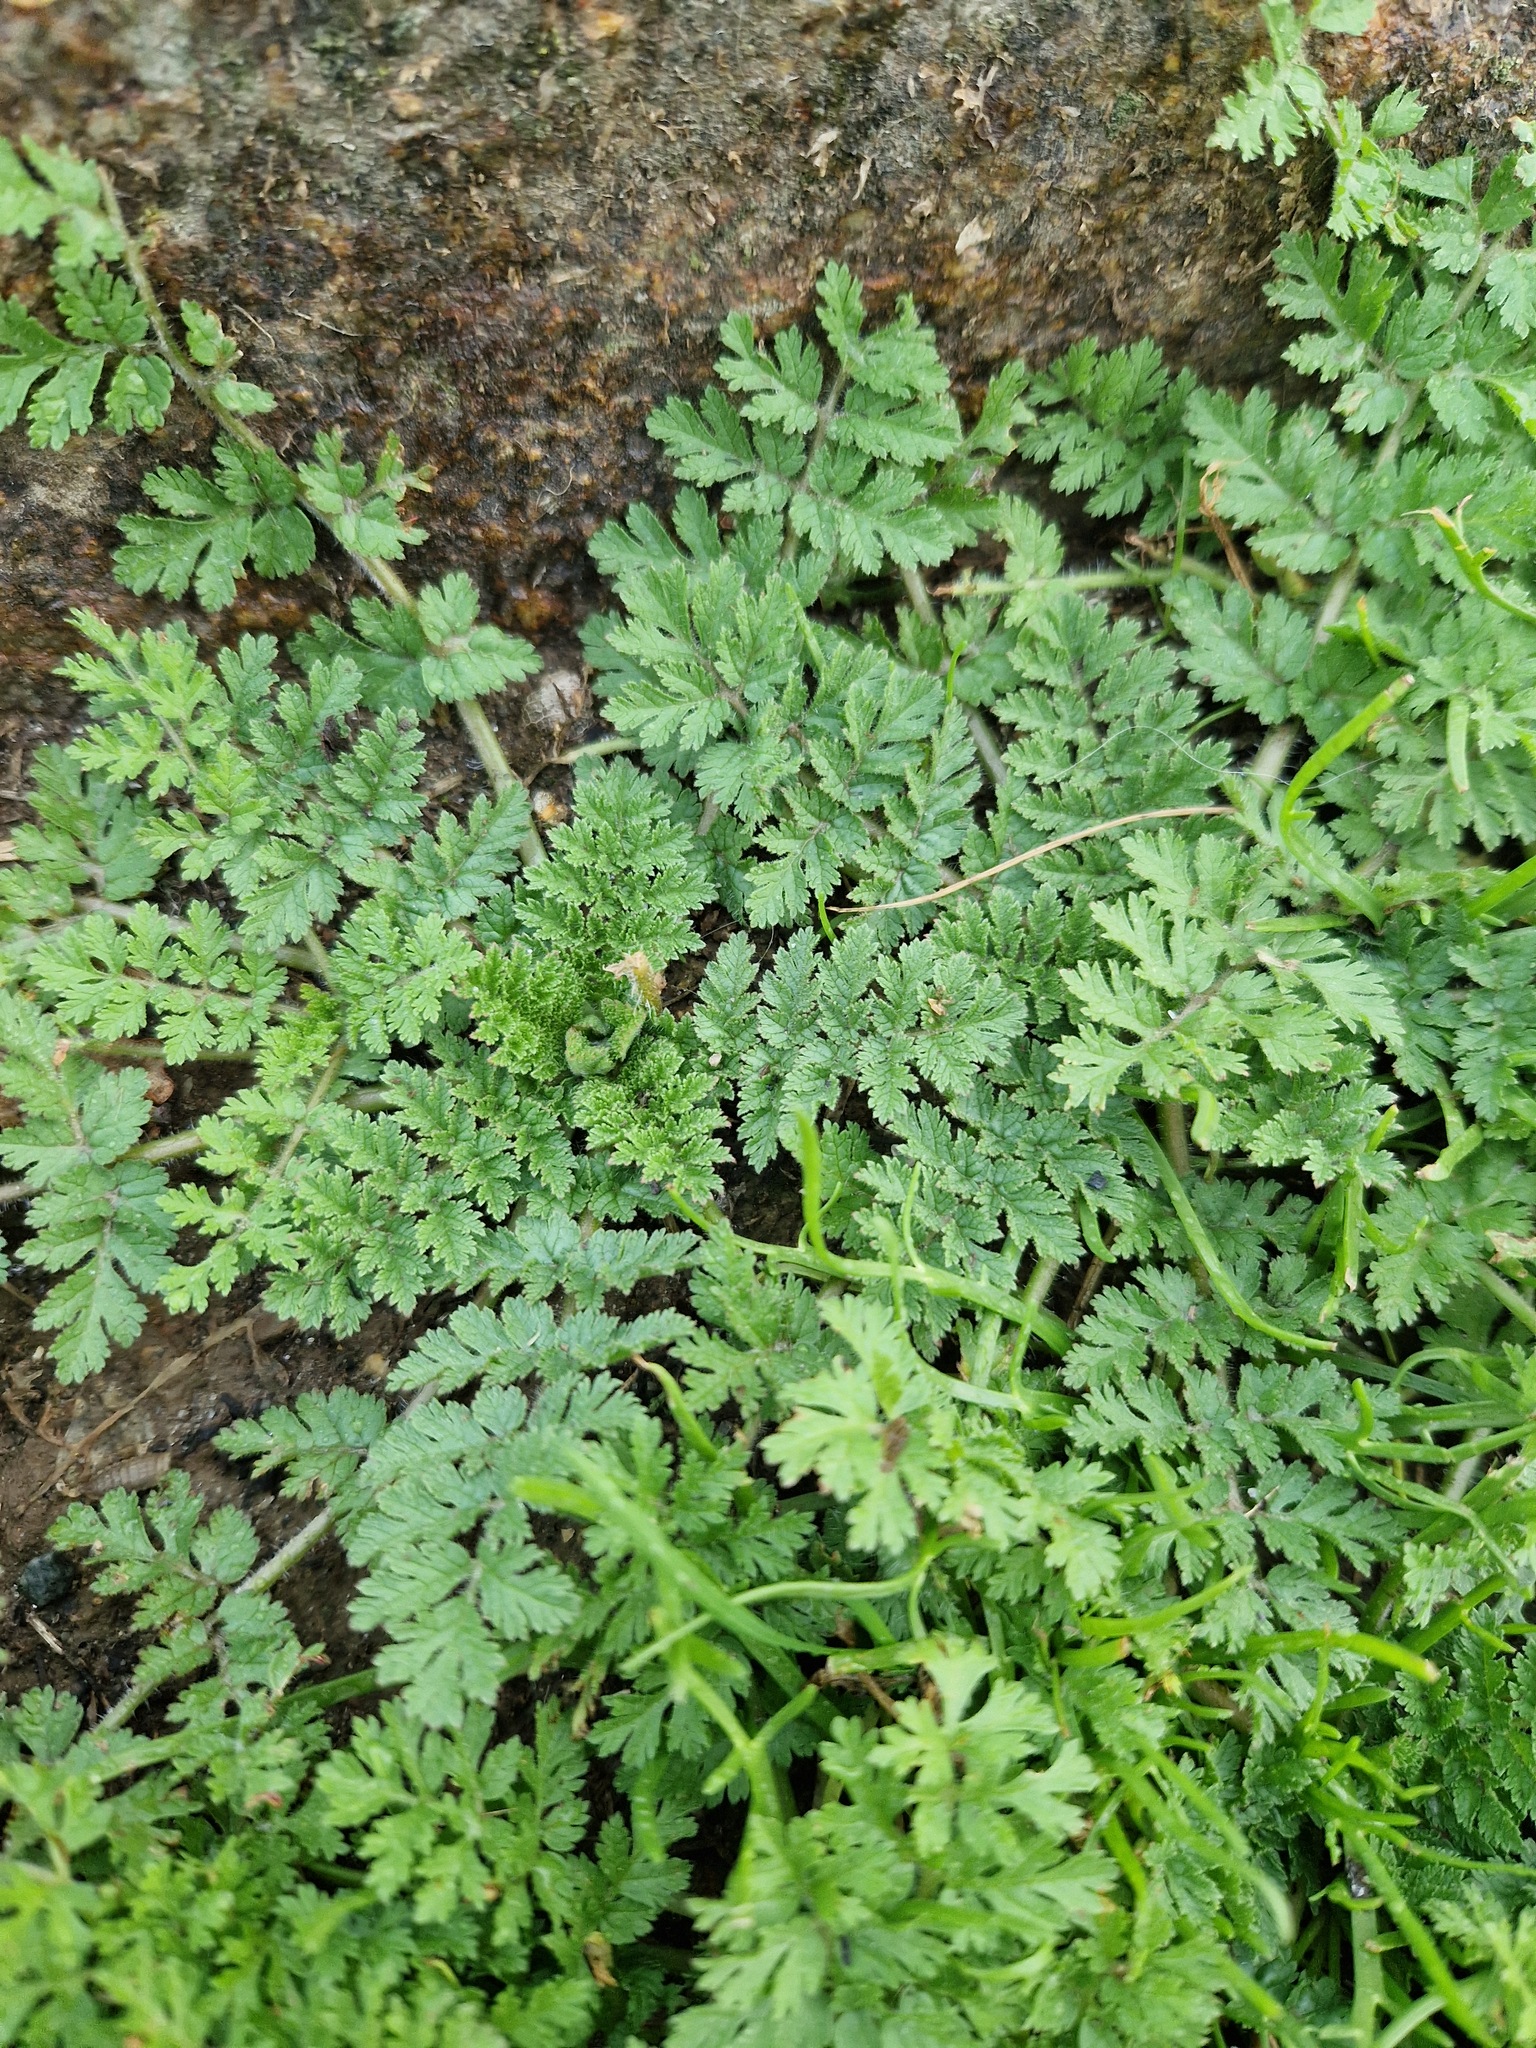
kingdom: Plantae
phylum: Tracheophyta
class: Magnoliopsida
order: Geraniales
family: Geraniaceae
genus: Erodium
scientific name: Erodium moschatum
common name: Musk stork's-bill
